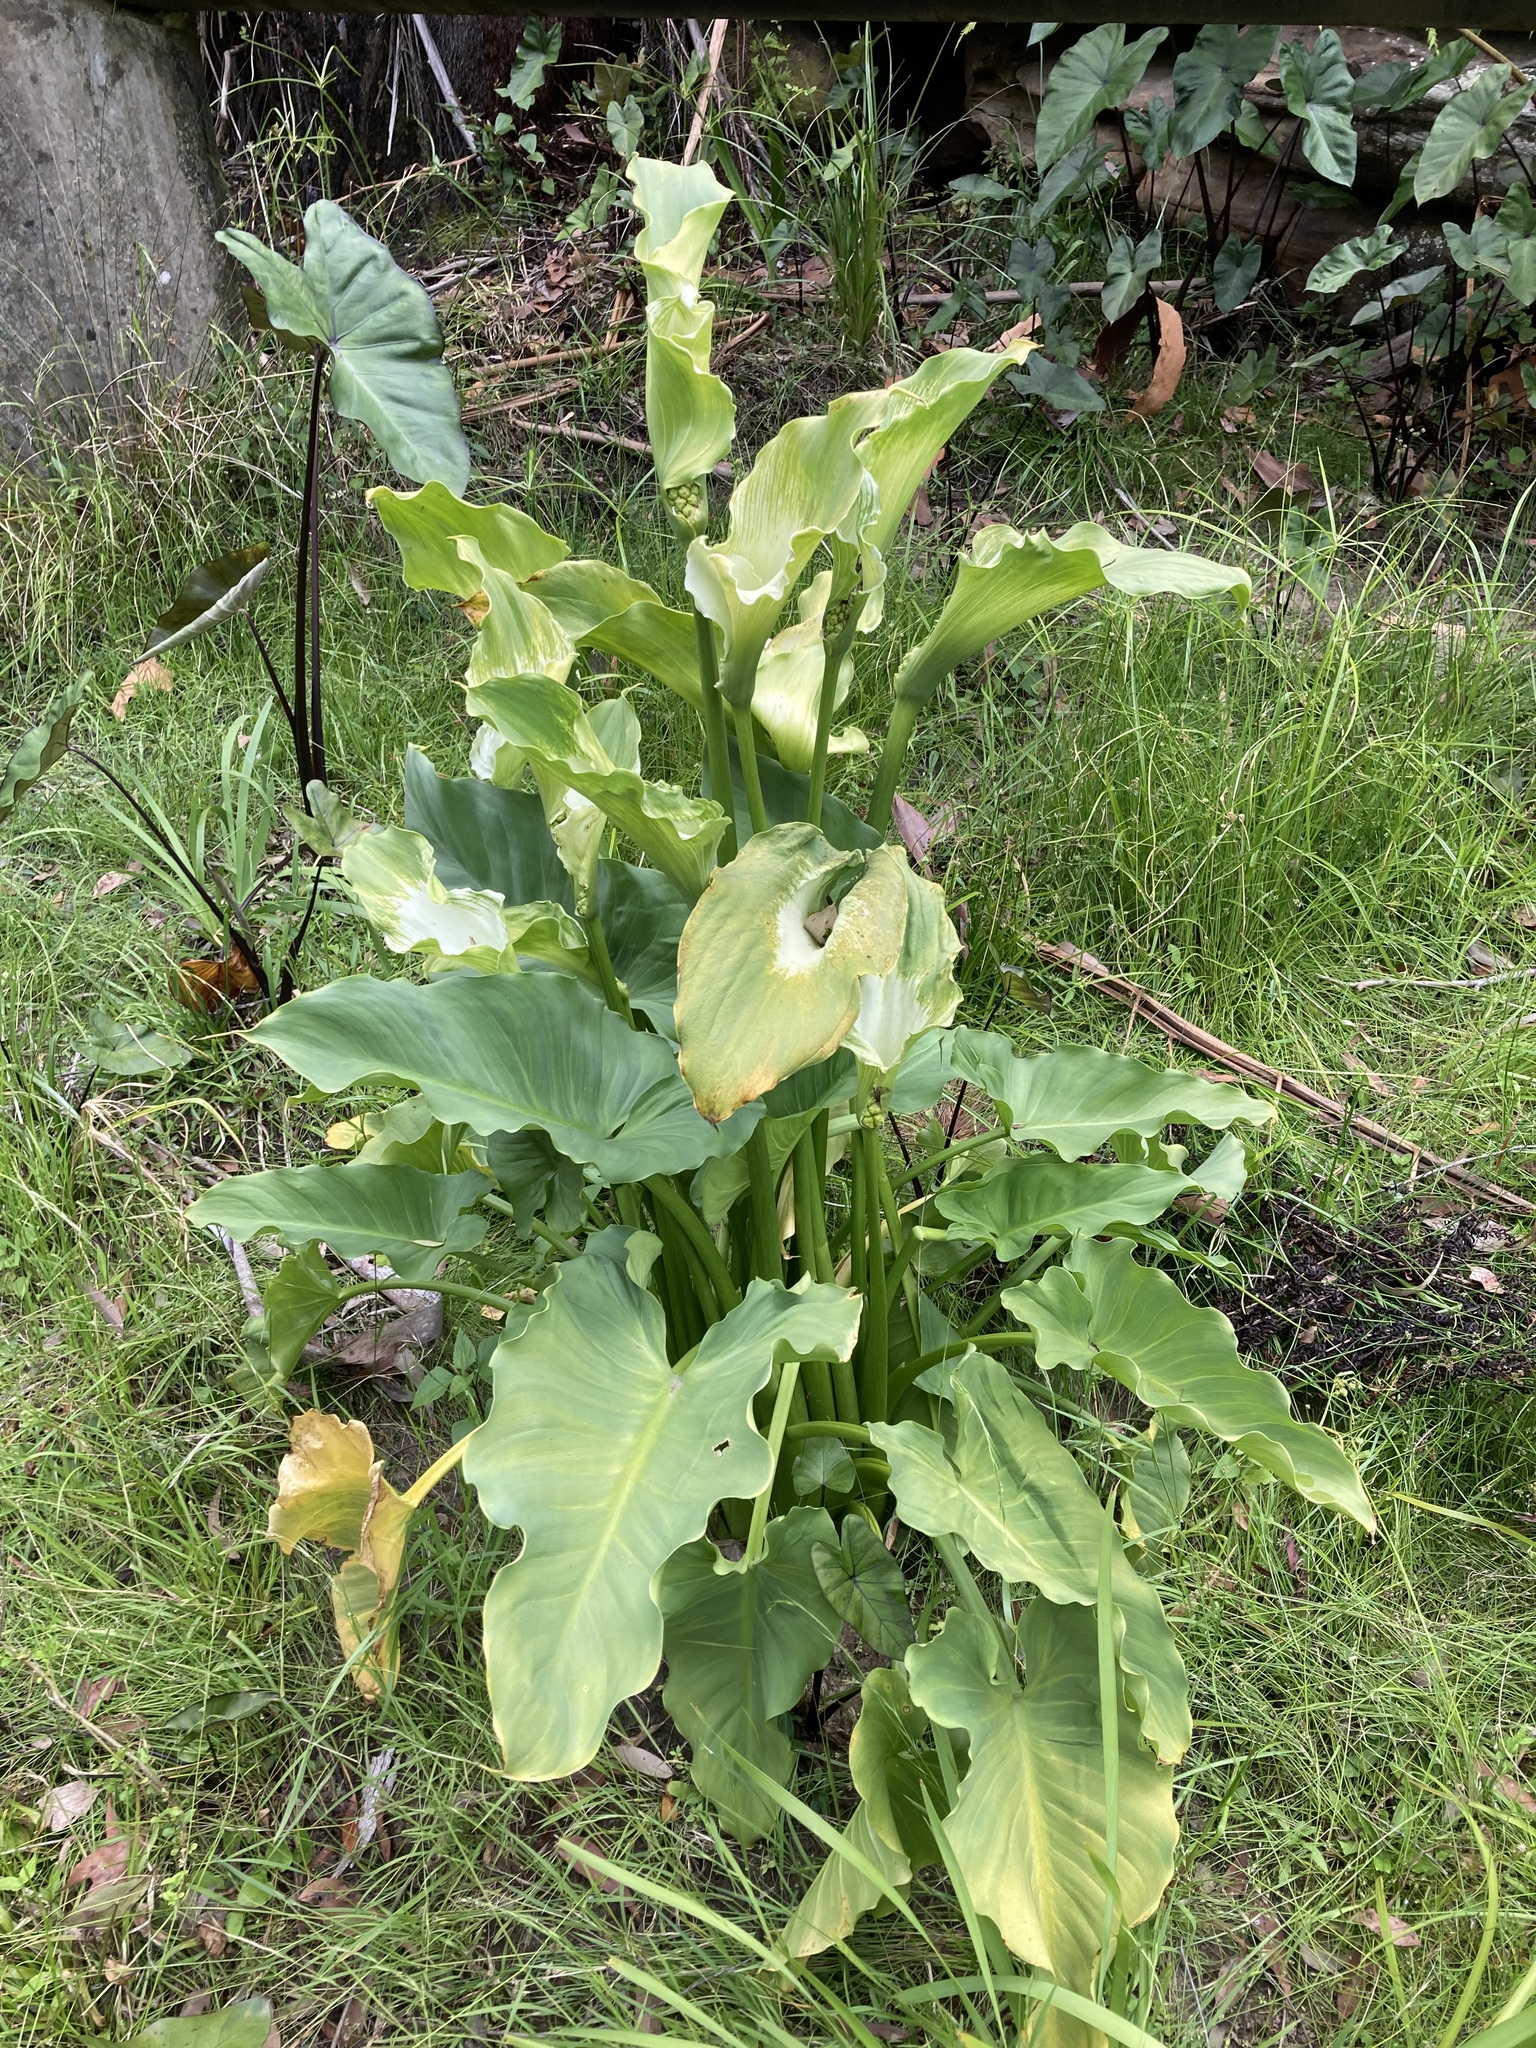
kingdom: Plantae
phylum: Tracheophyta
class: Liliopsida
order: Alismatales
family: Araceae
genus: Zantedeschia
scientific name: Zantedeschia aethiopica
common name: Altar-lily
